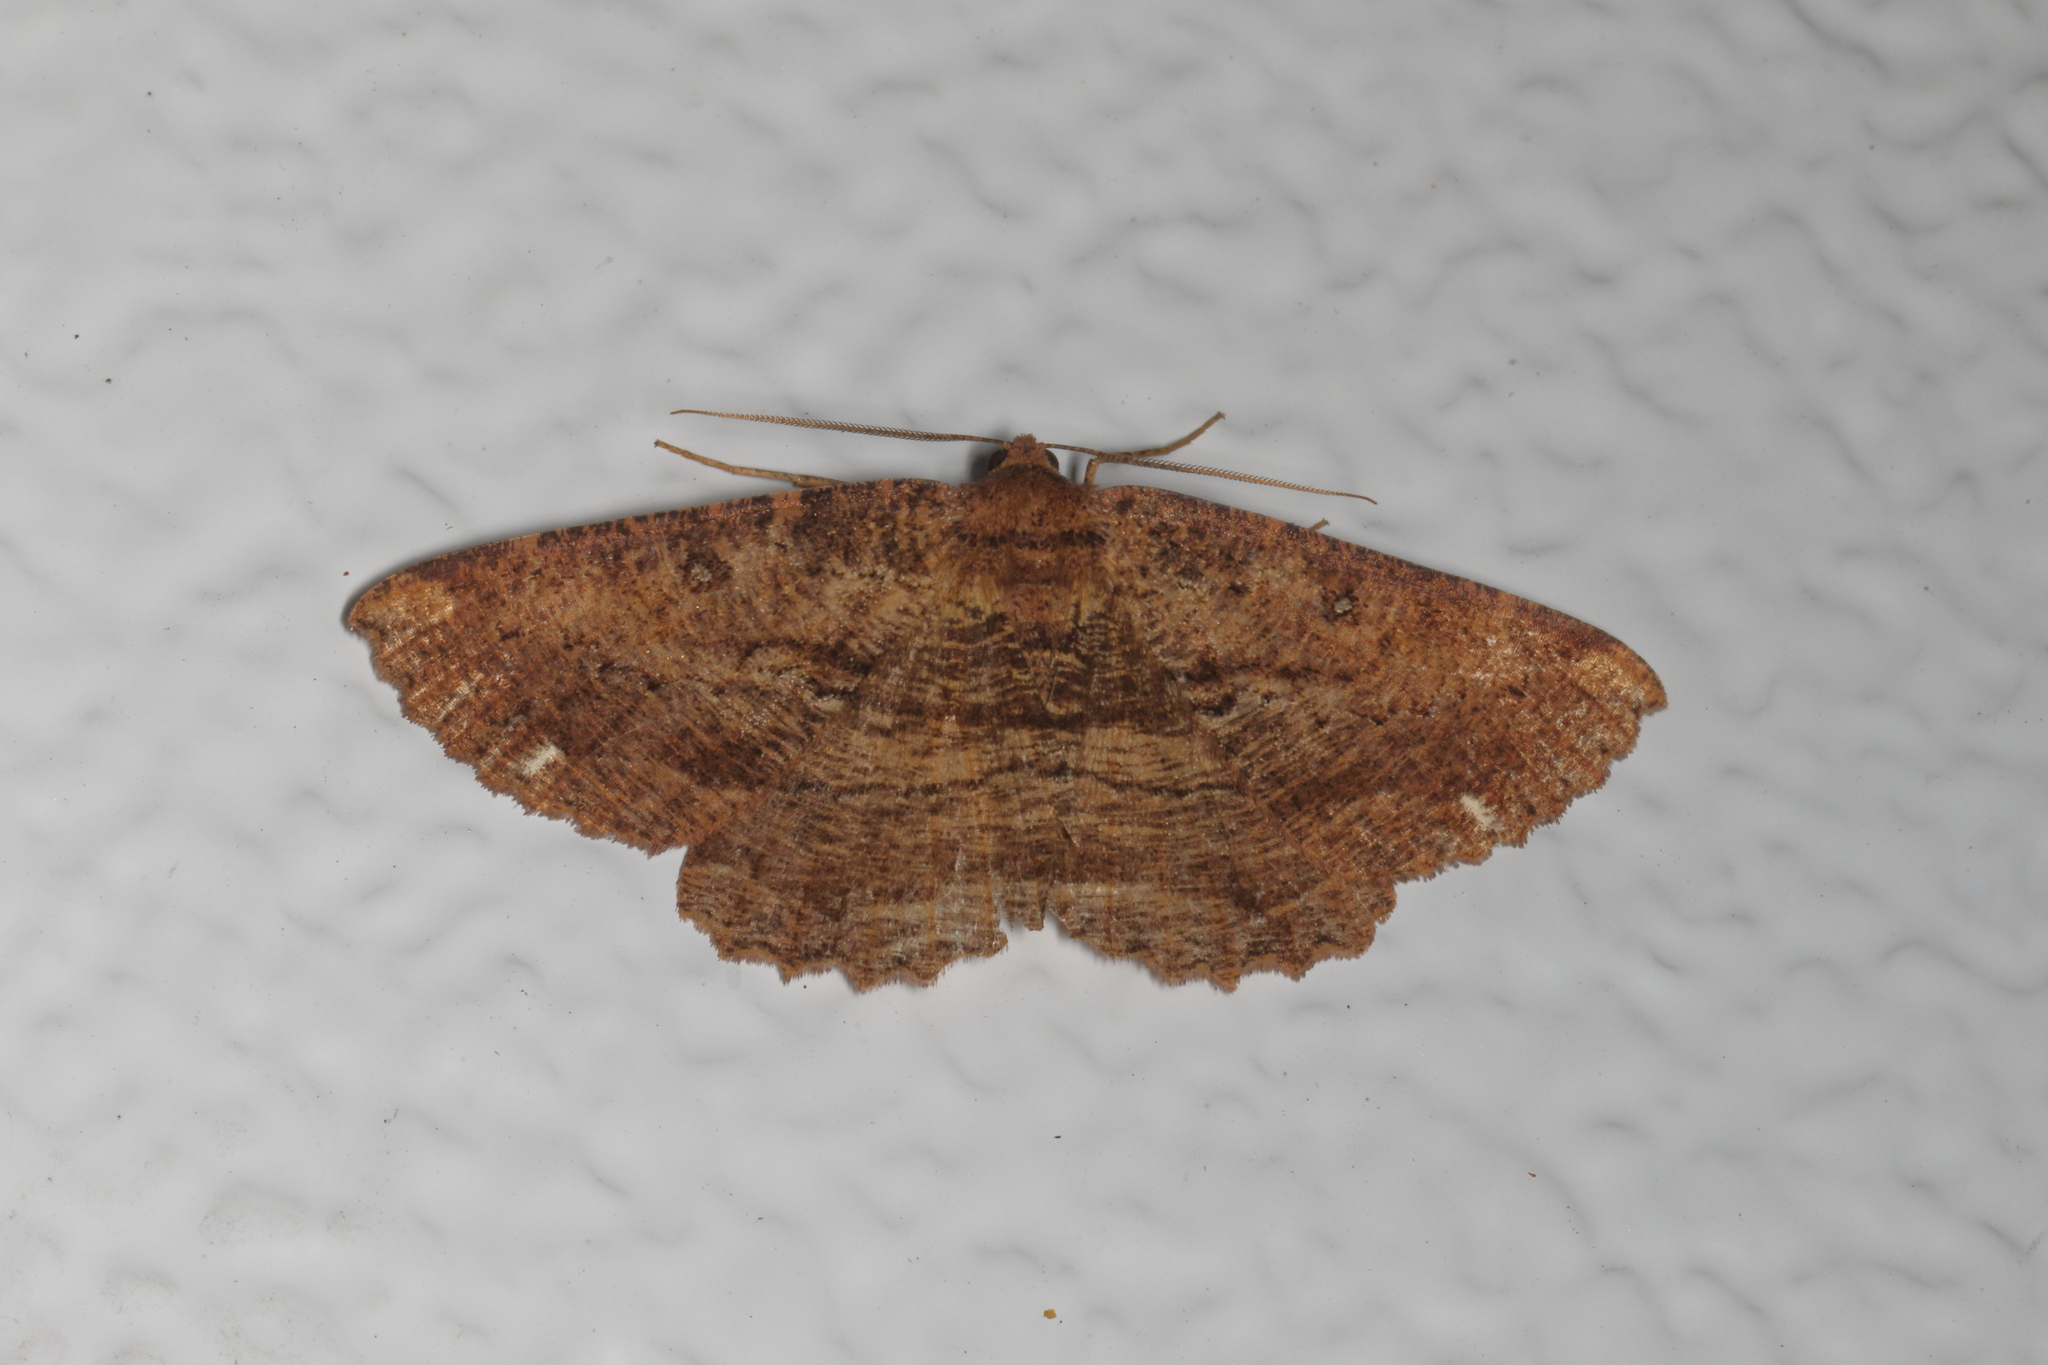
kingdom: Animalia
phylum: Arthropoda
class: Insecta
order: Lepidoptera
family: Geometridae
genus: Gellonia
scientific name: Gellonia dejectaria
